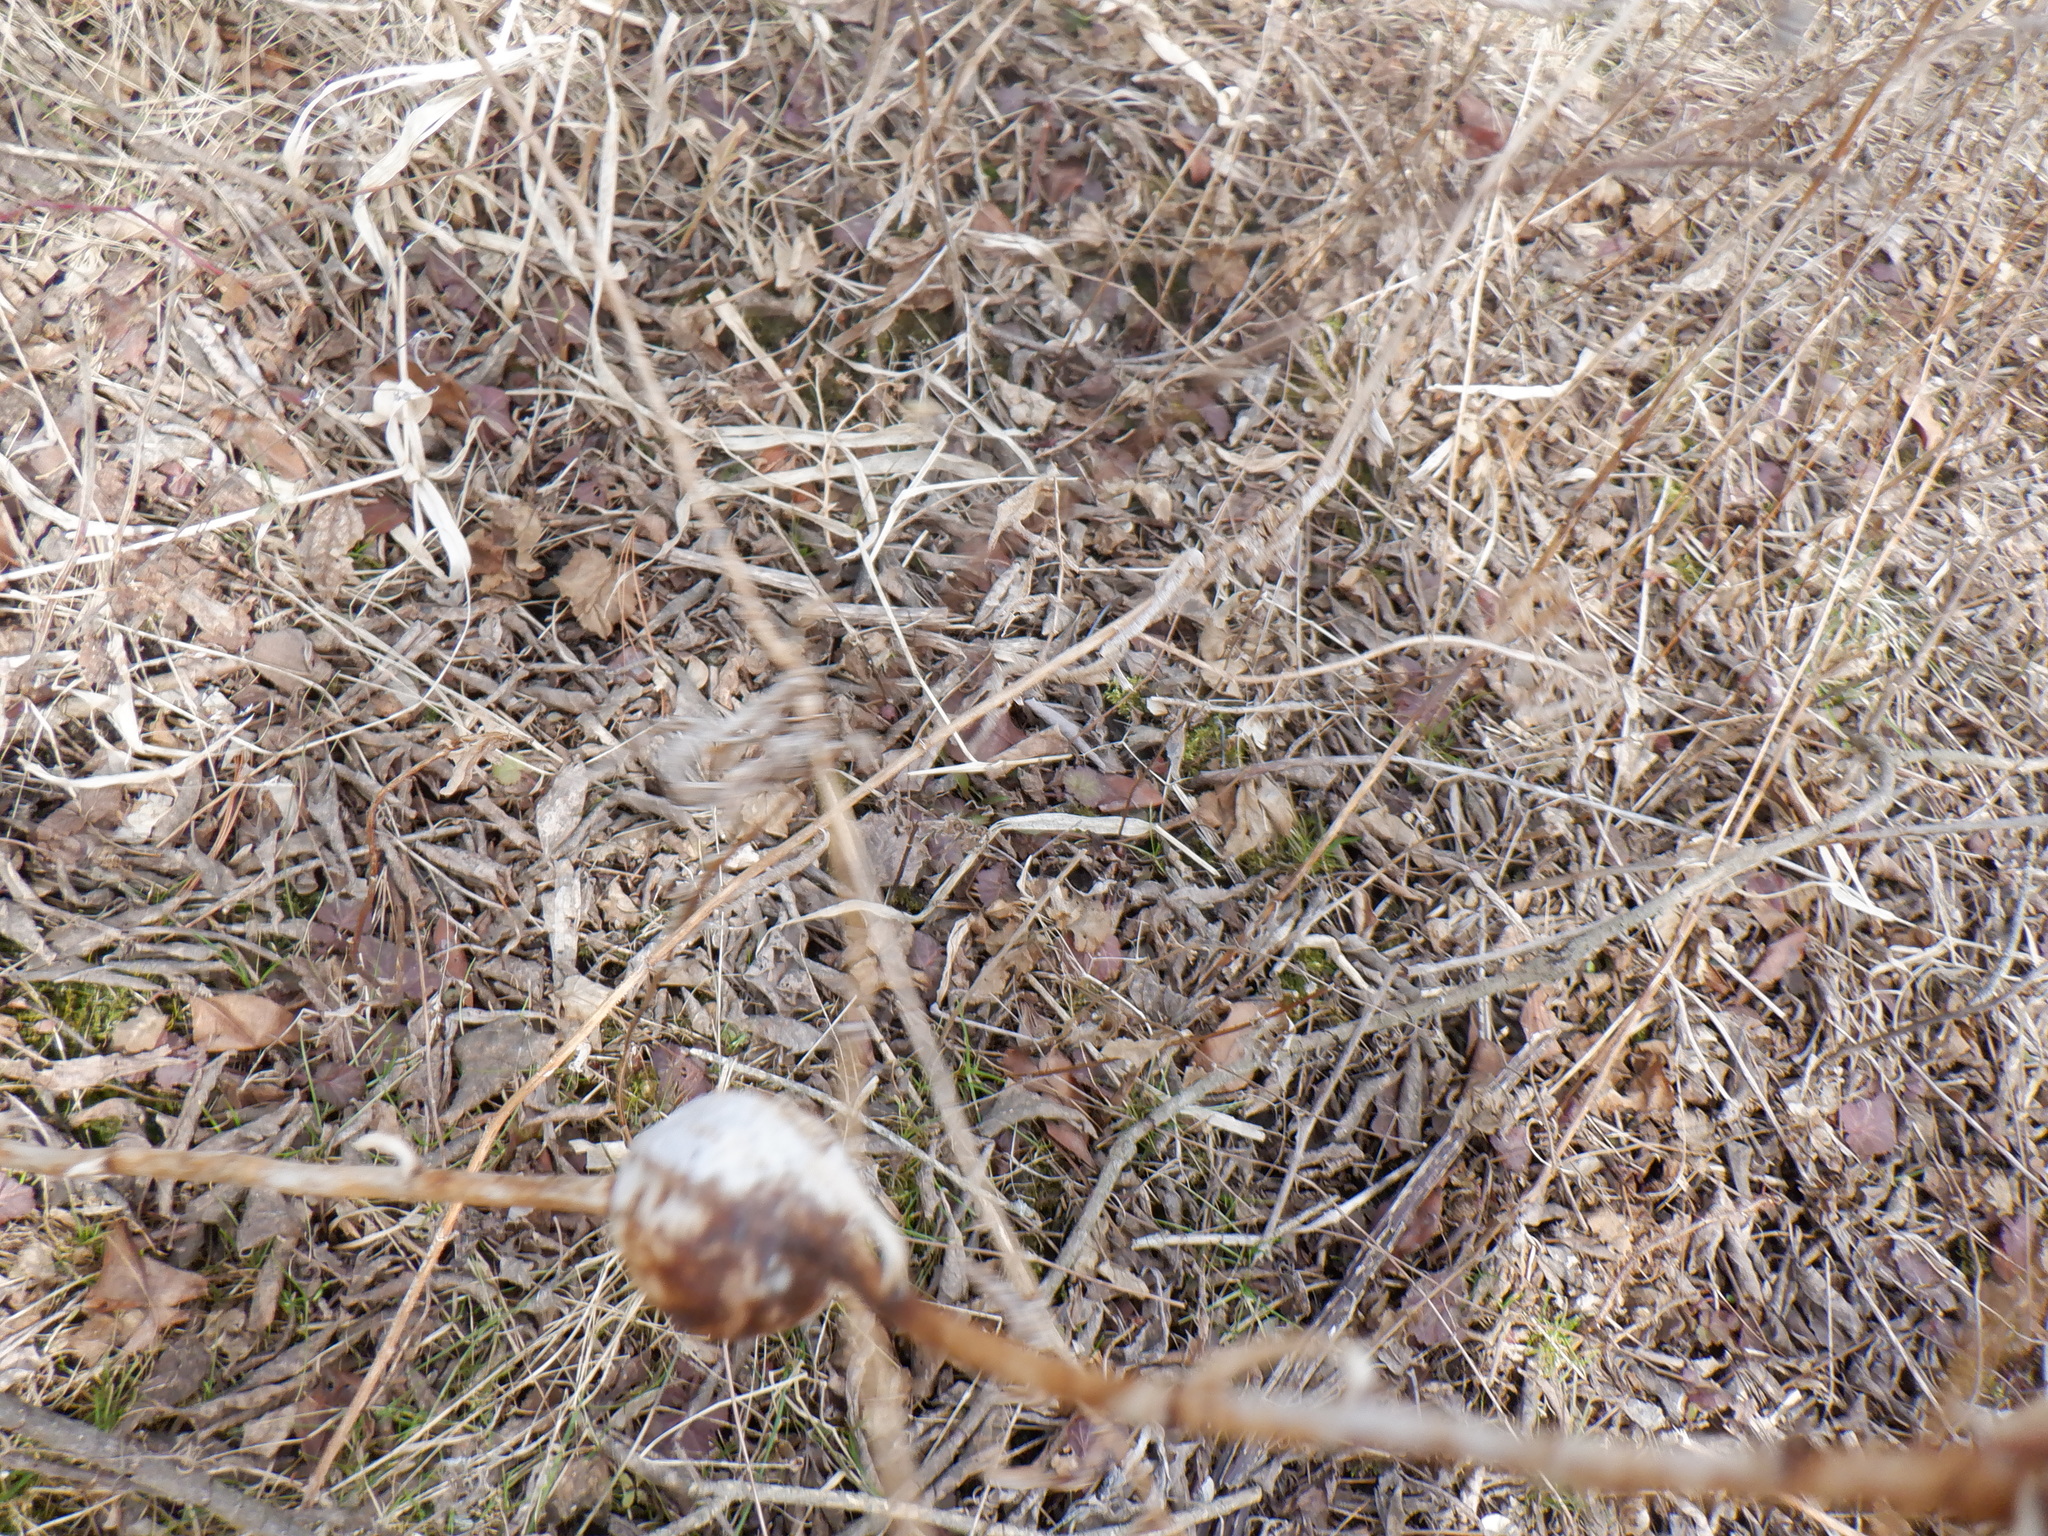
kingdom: Animalia
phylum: Arthropoda
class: Insecta
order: Diptera
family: Tephritidae
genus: Eurosta
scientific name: Eurosta solidaginis
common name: Goldenrod gall fly
